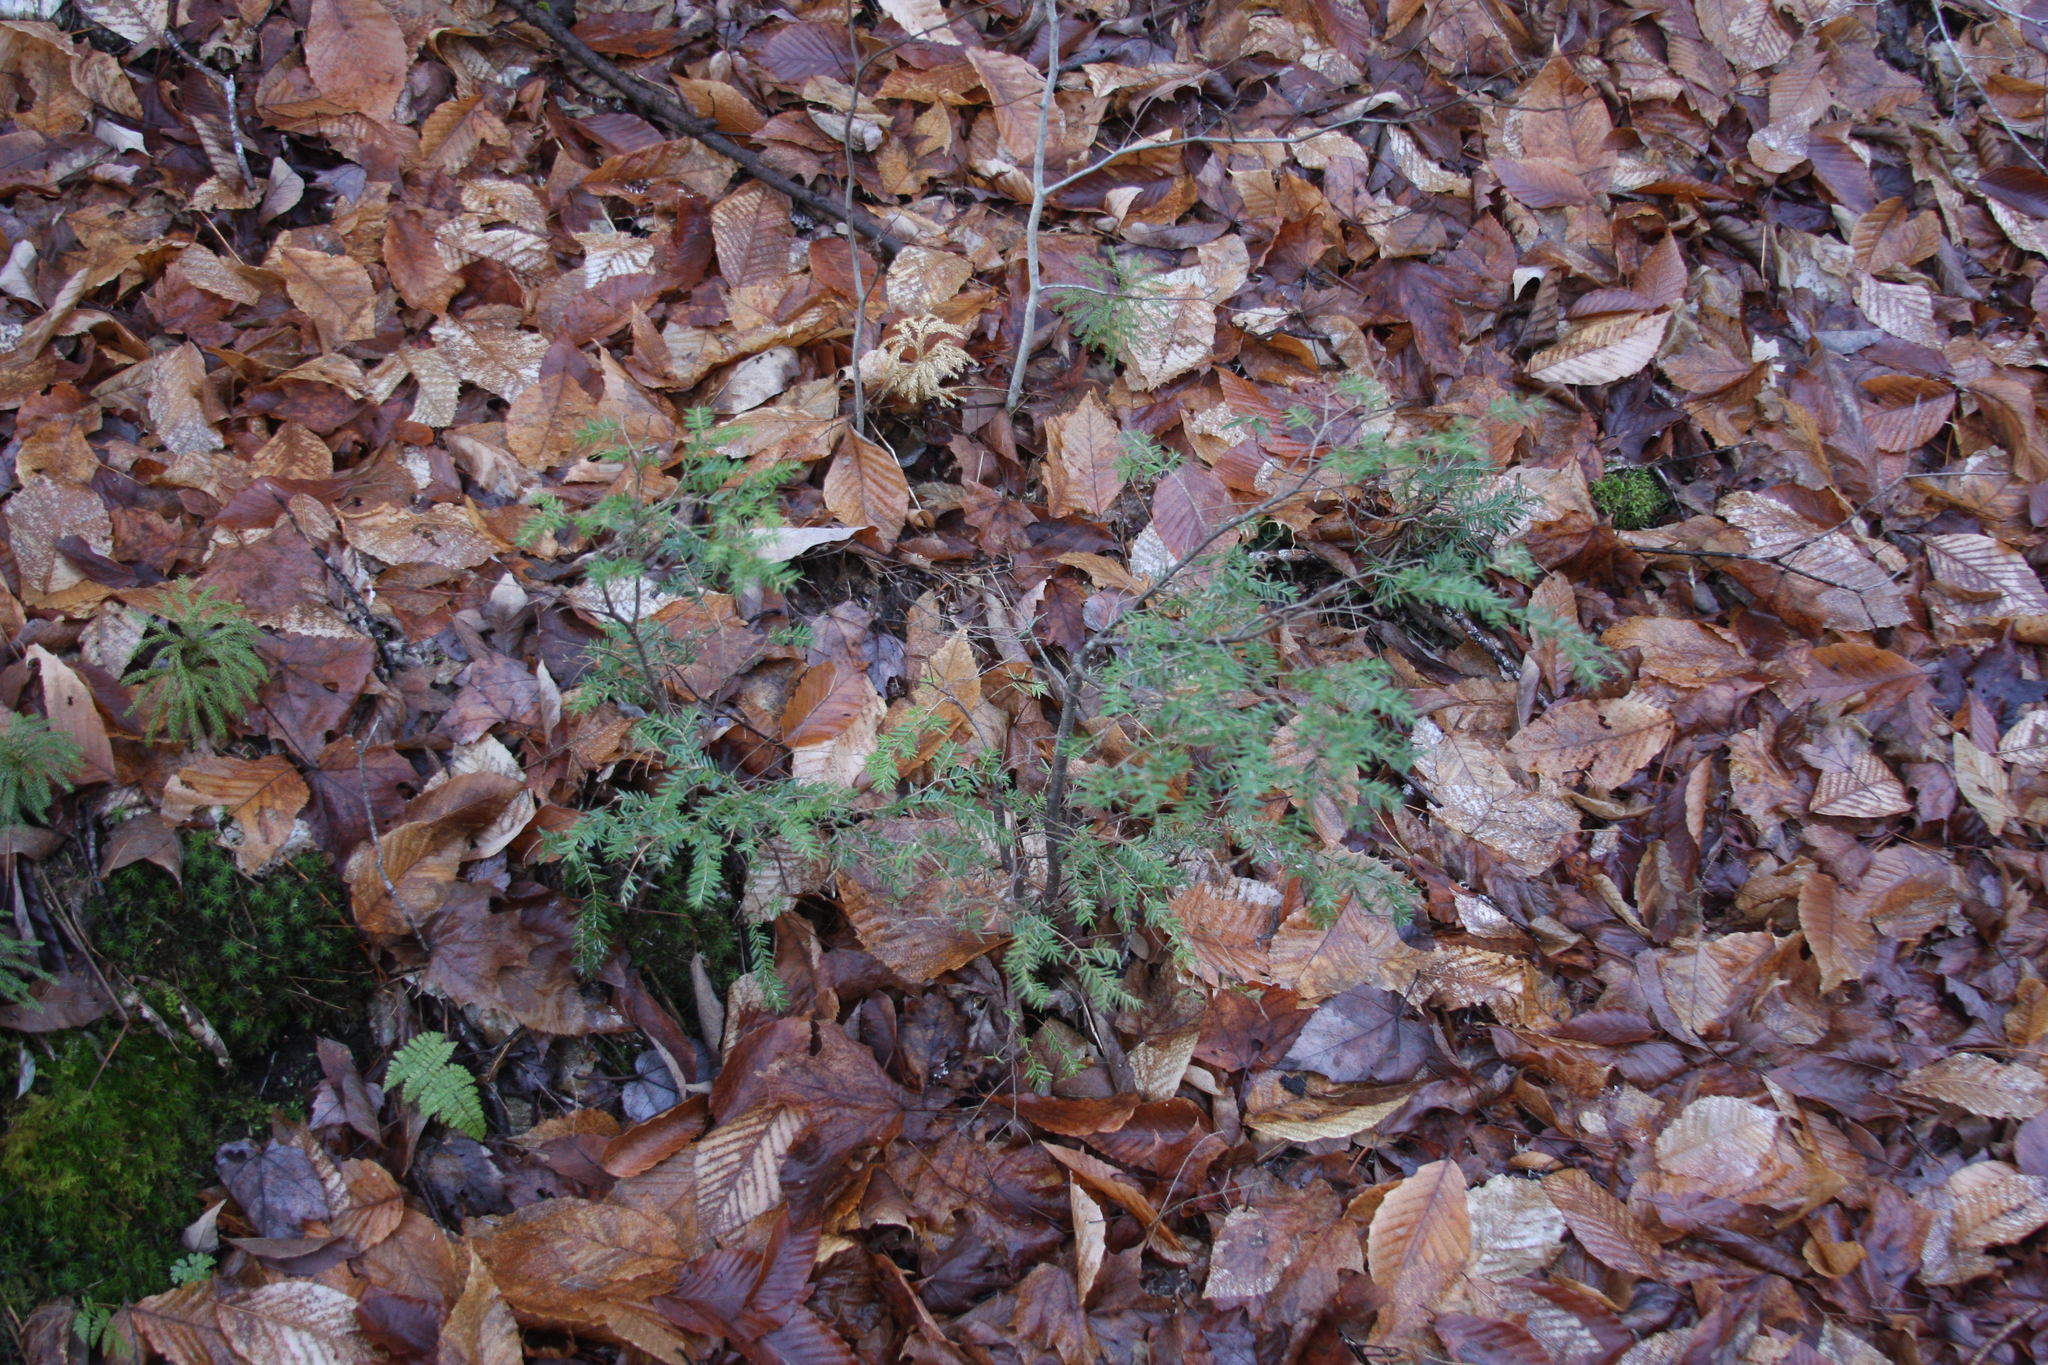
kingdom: Plantae
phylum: Tracheophyta
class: Pinopsida
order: Pinales
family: Pinaceae
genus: Tsuga
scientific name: Tsuga canadensis
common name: Eastern hemlock
